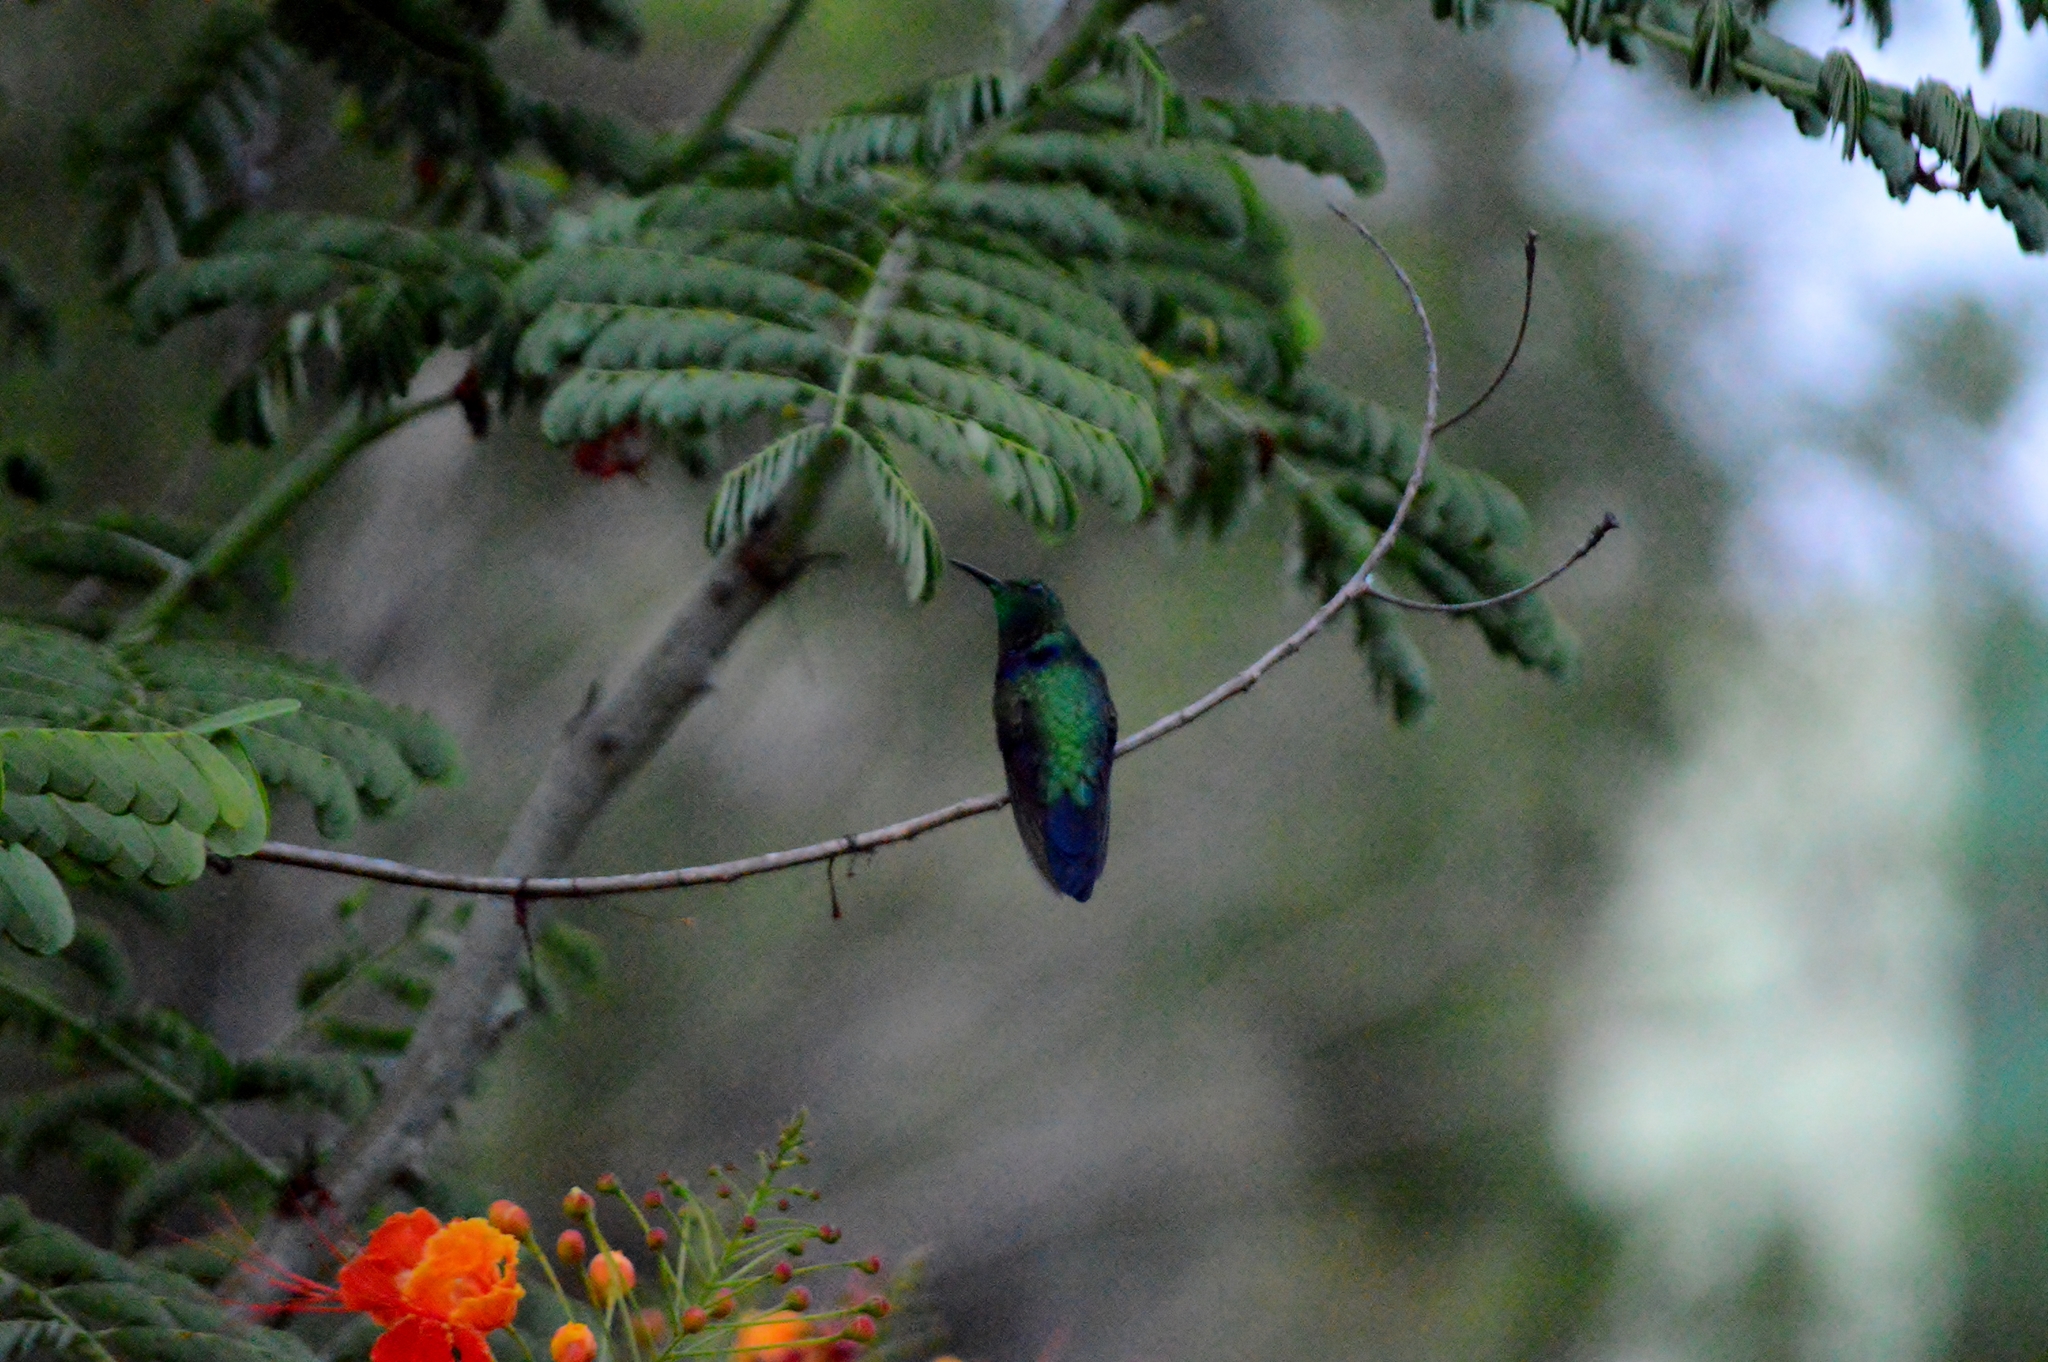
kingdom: Animalia
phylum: Chordata
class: Aves
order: Apodiformes
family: Trochilidae
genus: Thalurania
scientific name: Thalurania furcata
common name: Fork-tailed woodnymph
